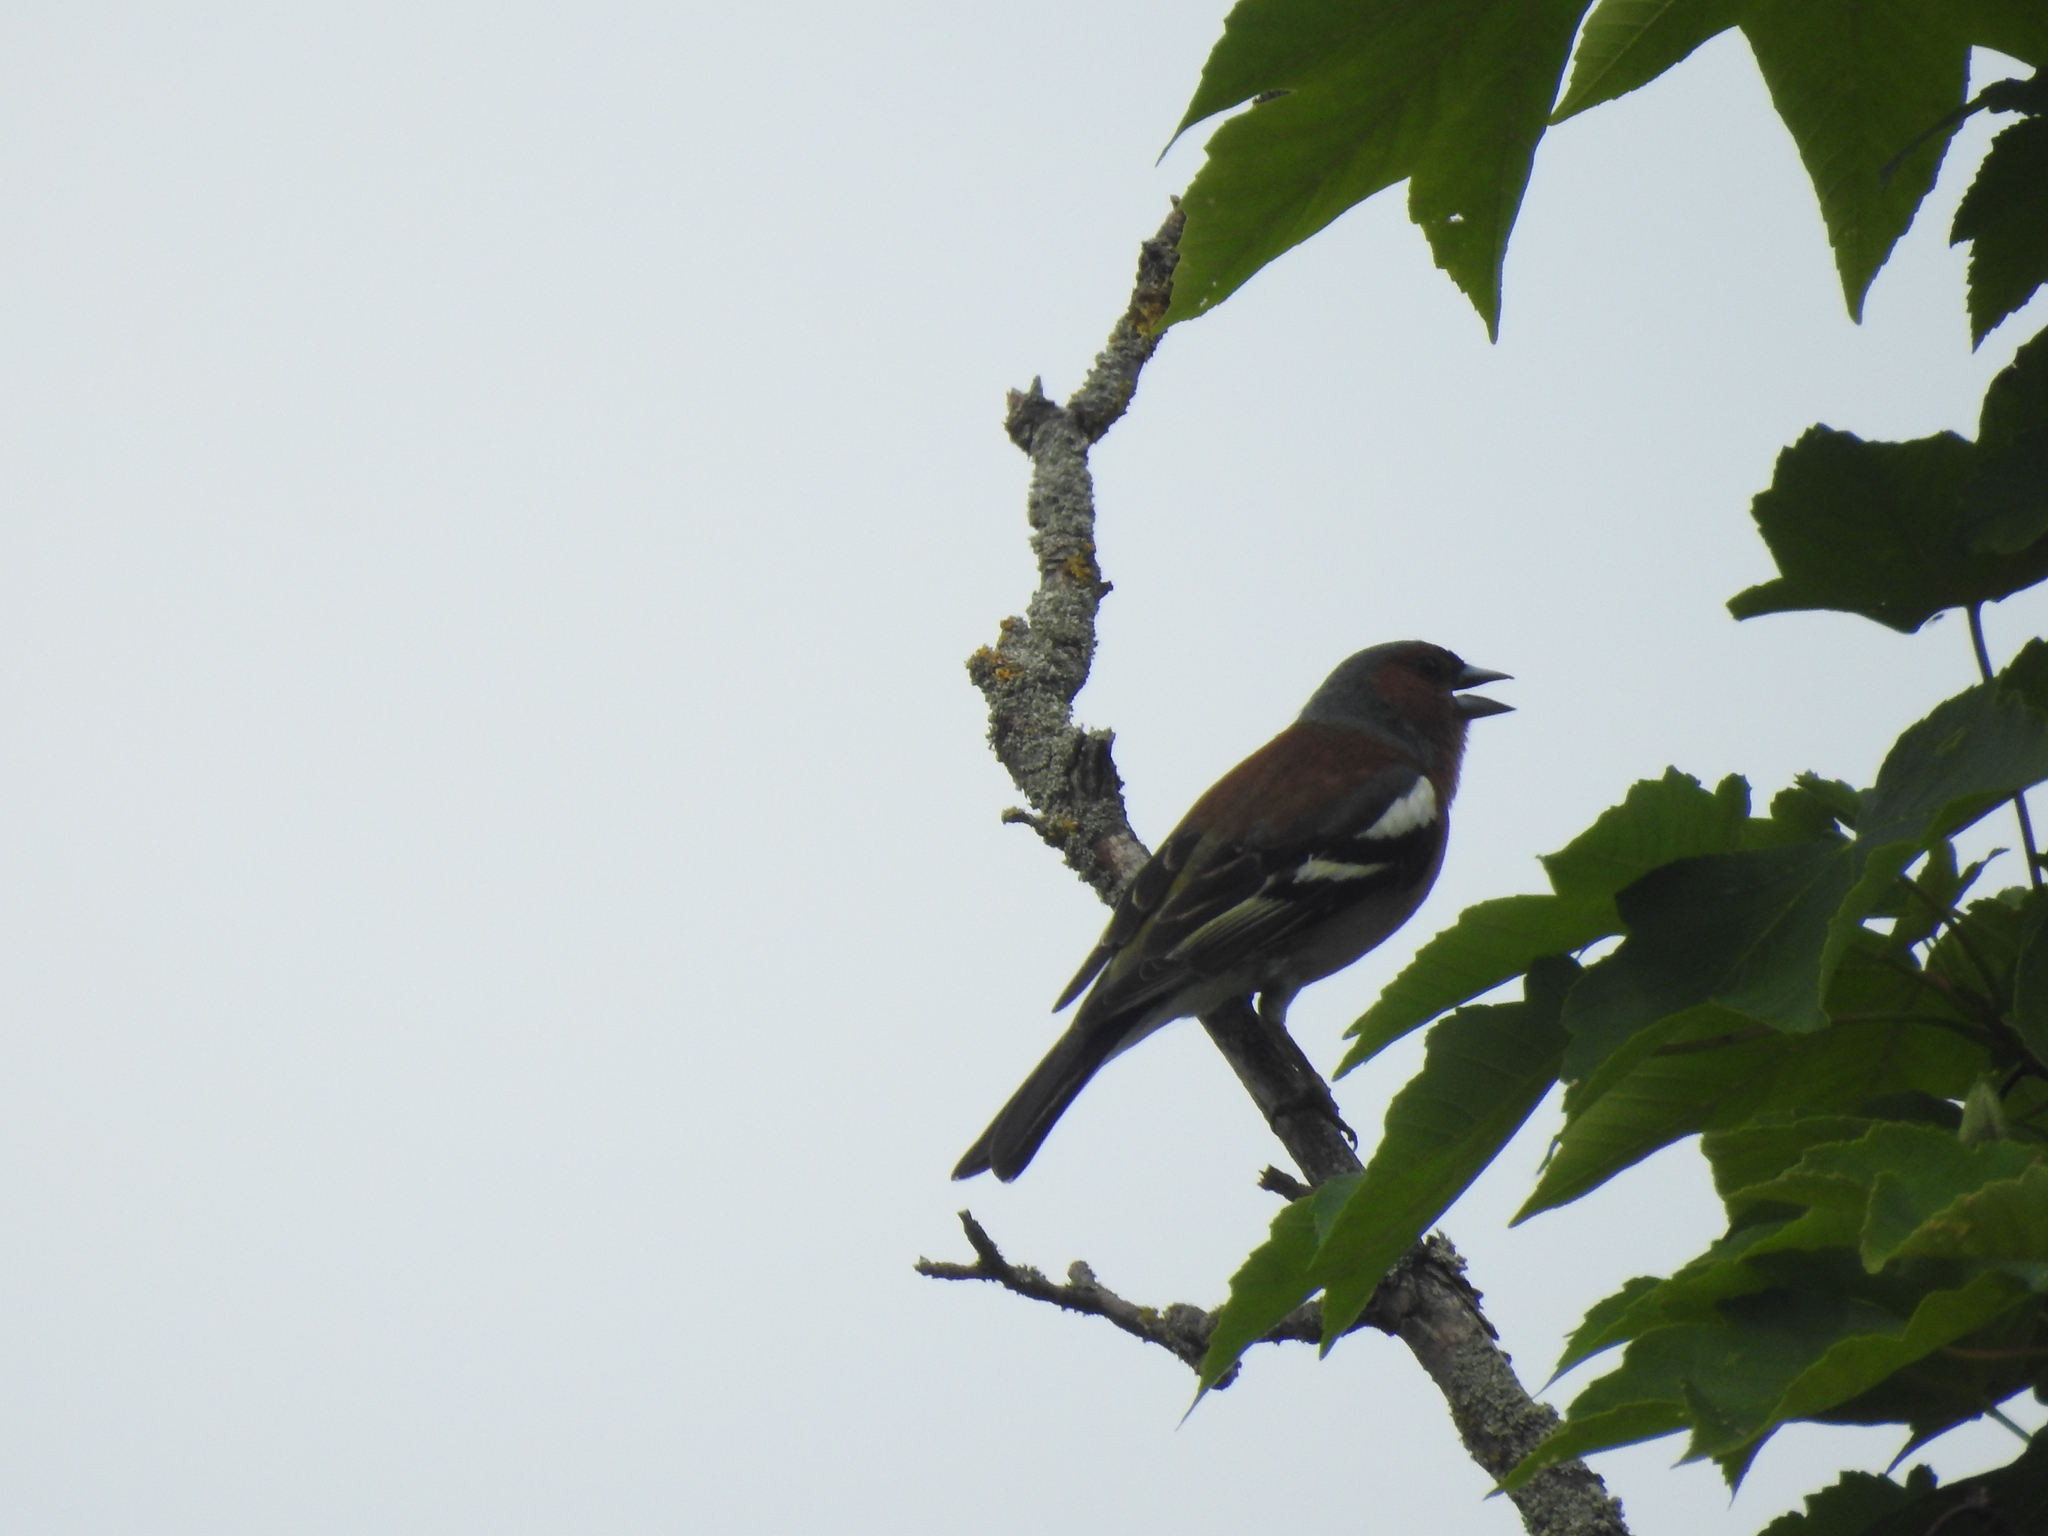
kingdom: Animalia
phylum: Chordata
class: Aves
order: Passeriformes
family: Fringillidae
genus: Fringilla
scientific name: Fringilla coelebs
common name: Common chaffinch
